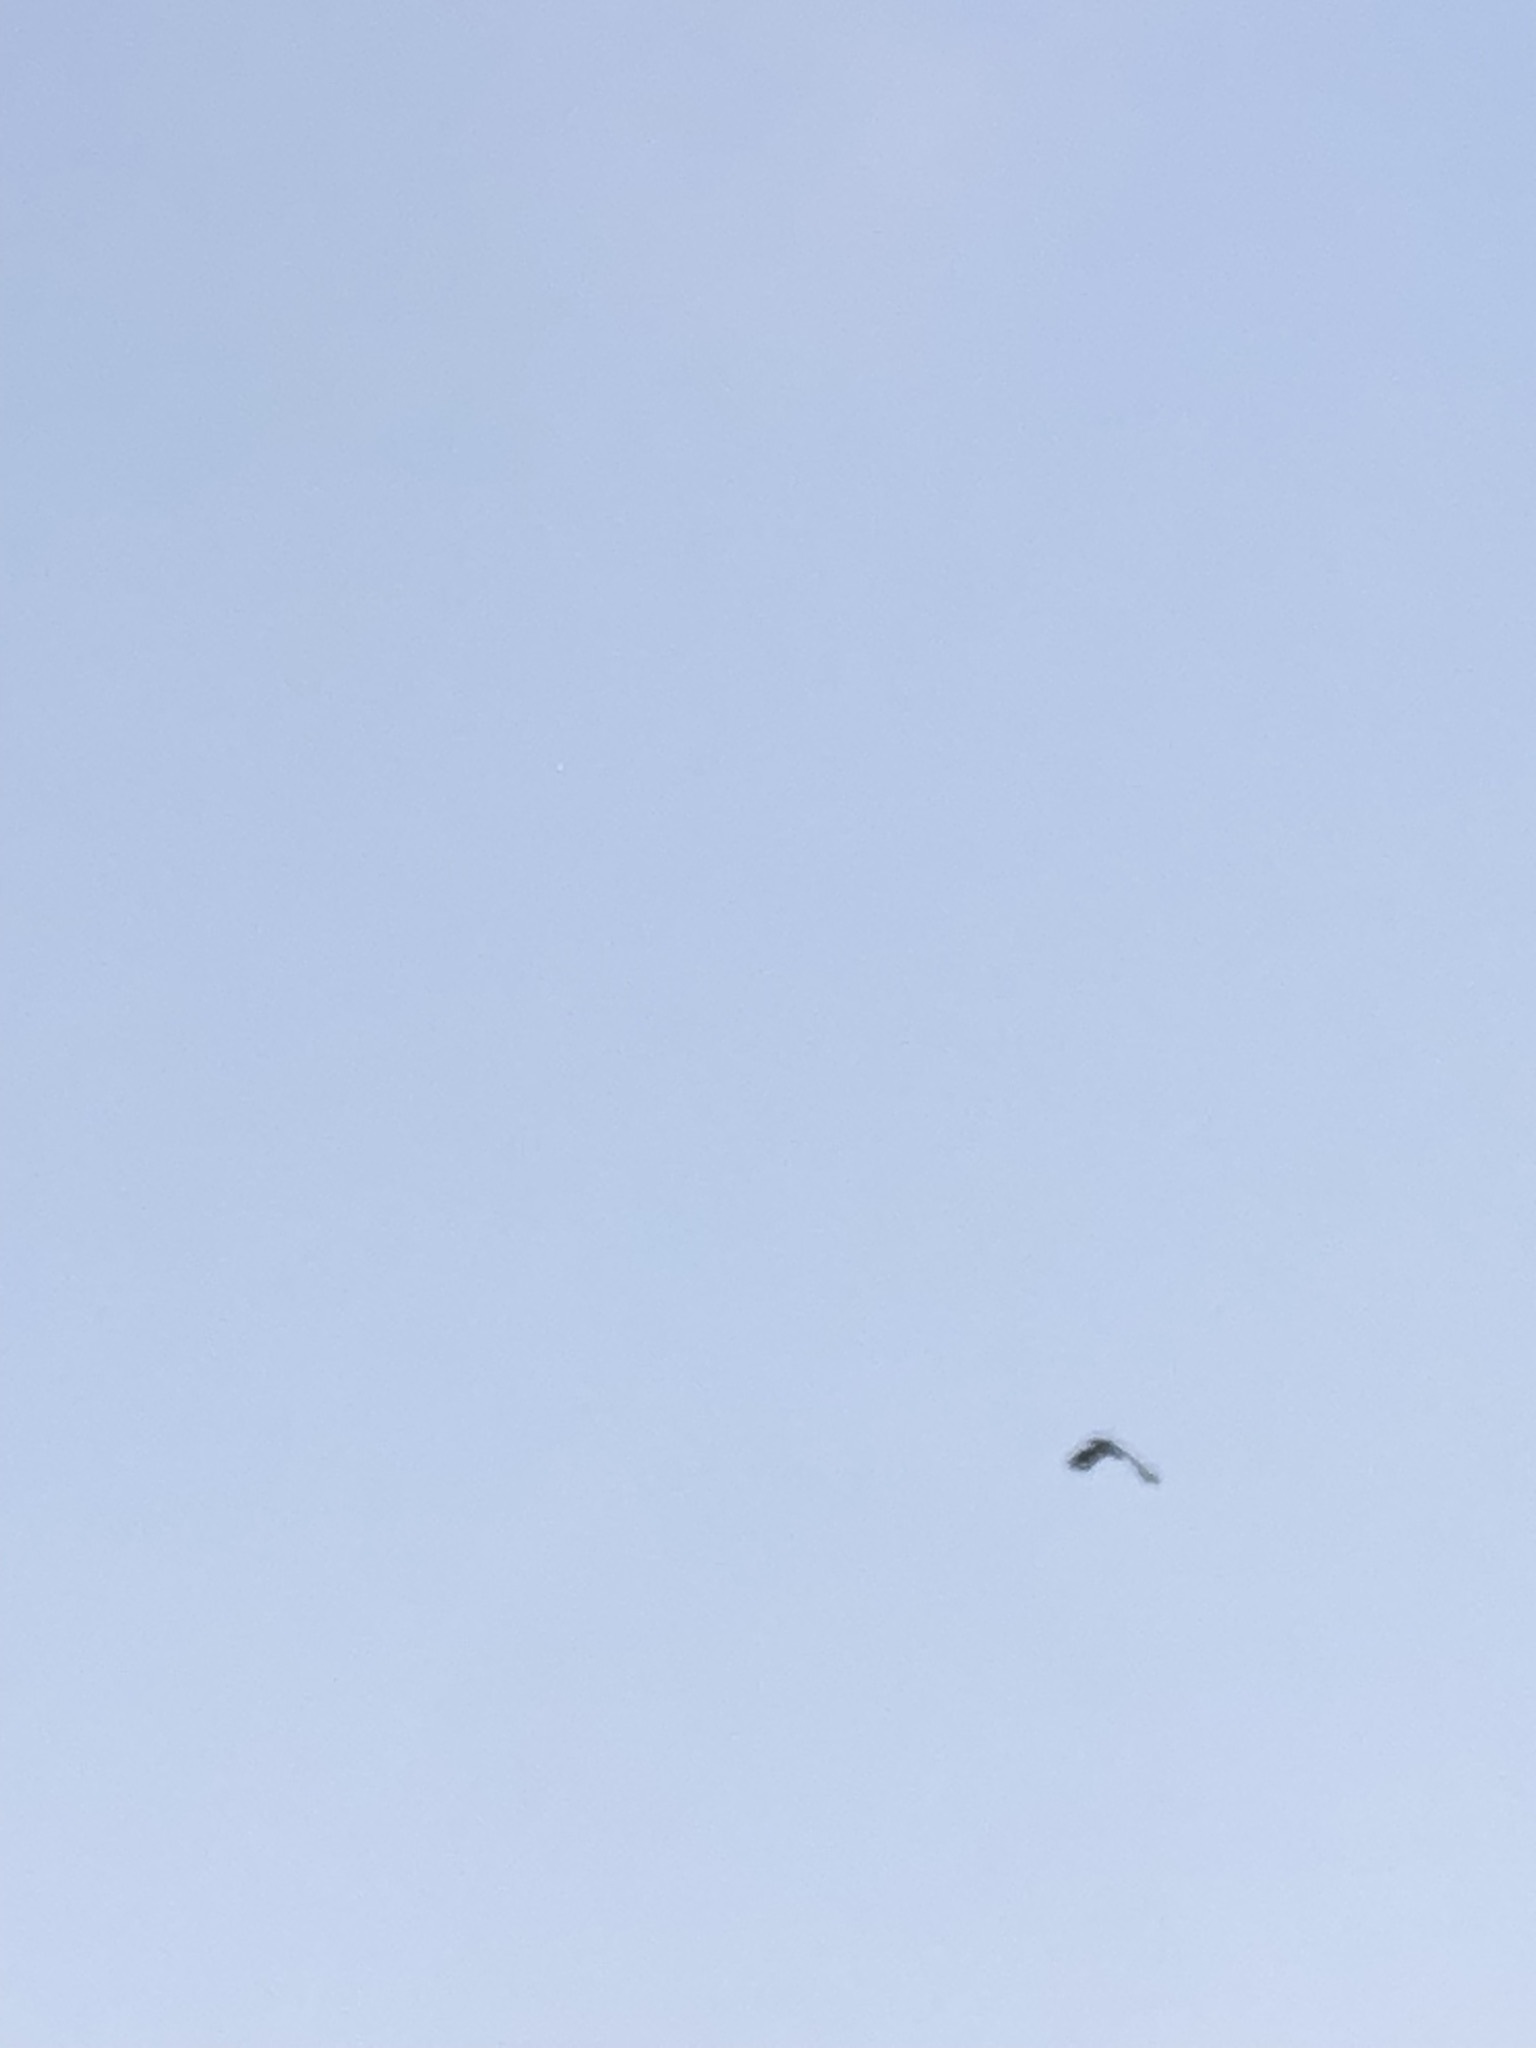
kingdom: Animalia
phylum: Chordata
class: Aves
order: Accipitriformes
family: Accipitridae
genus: Parabuteo
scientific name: Parabuteo unicinctus
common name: Harris's hawk
